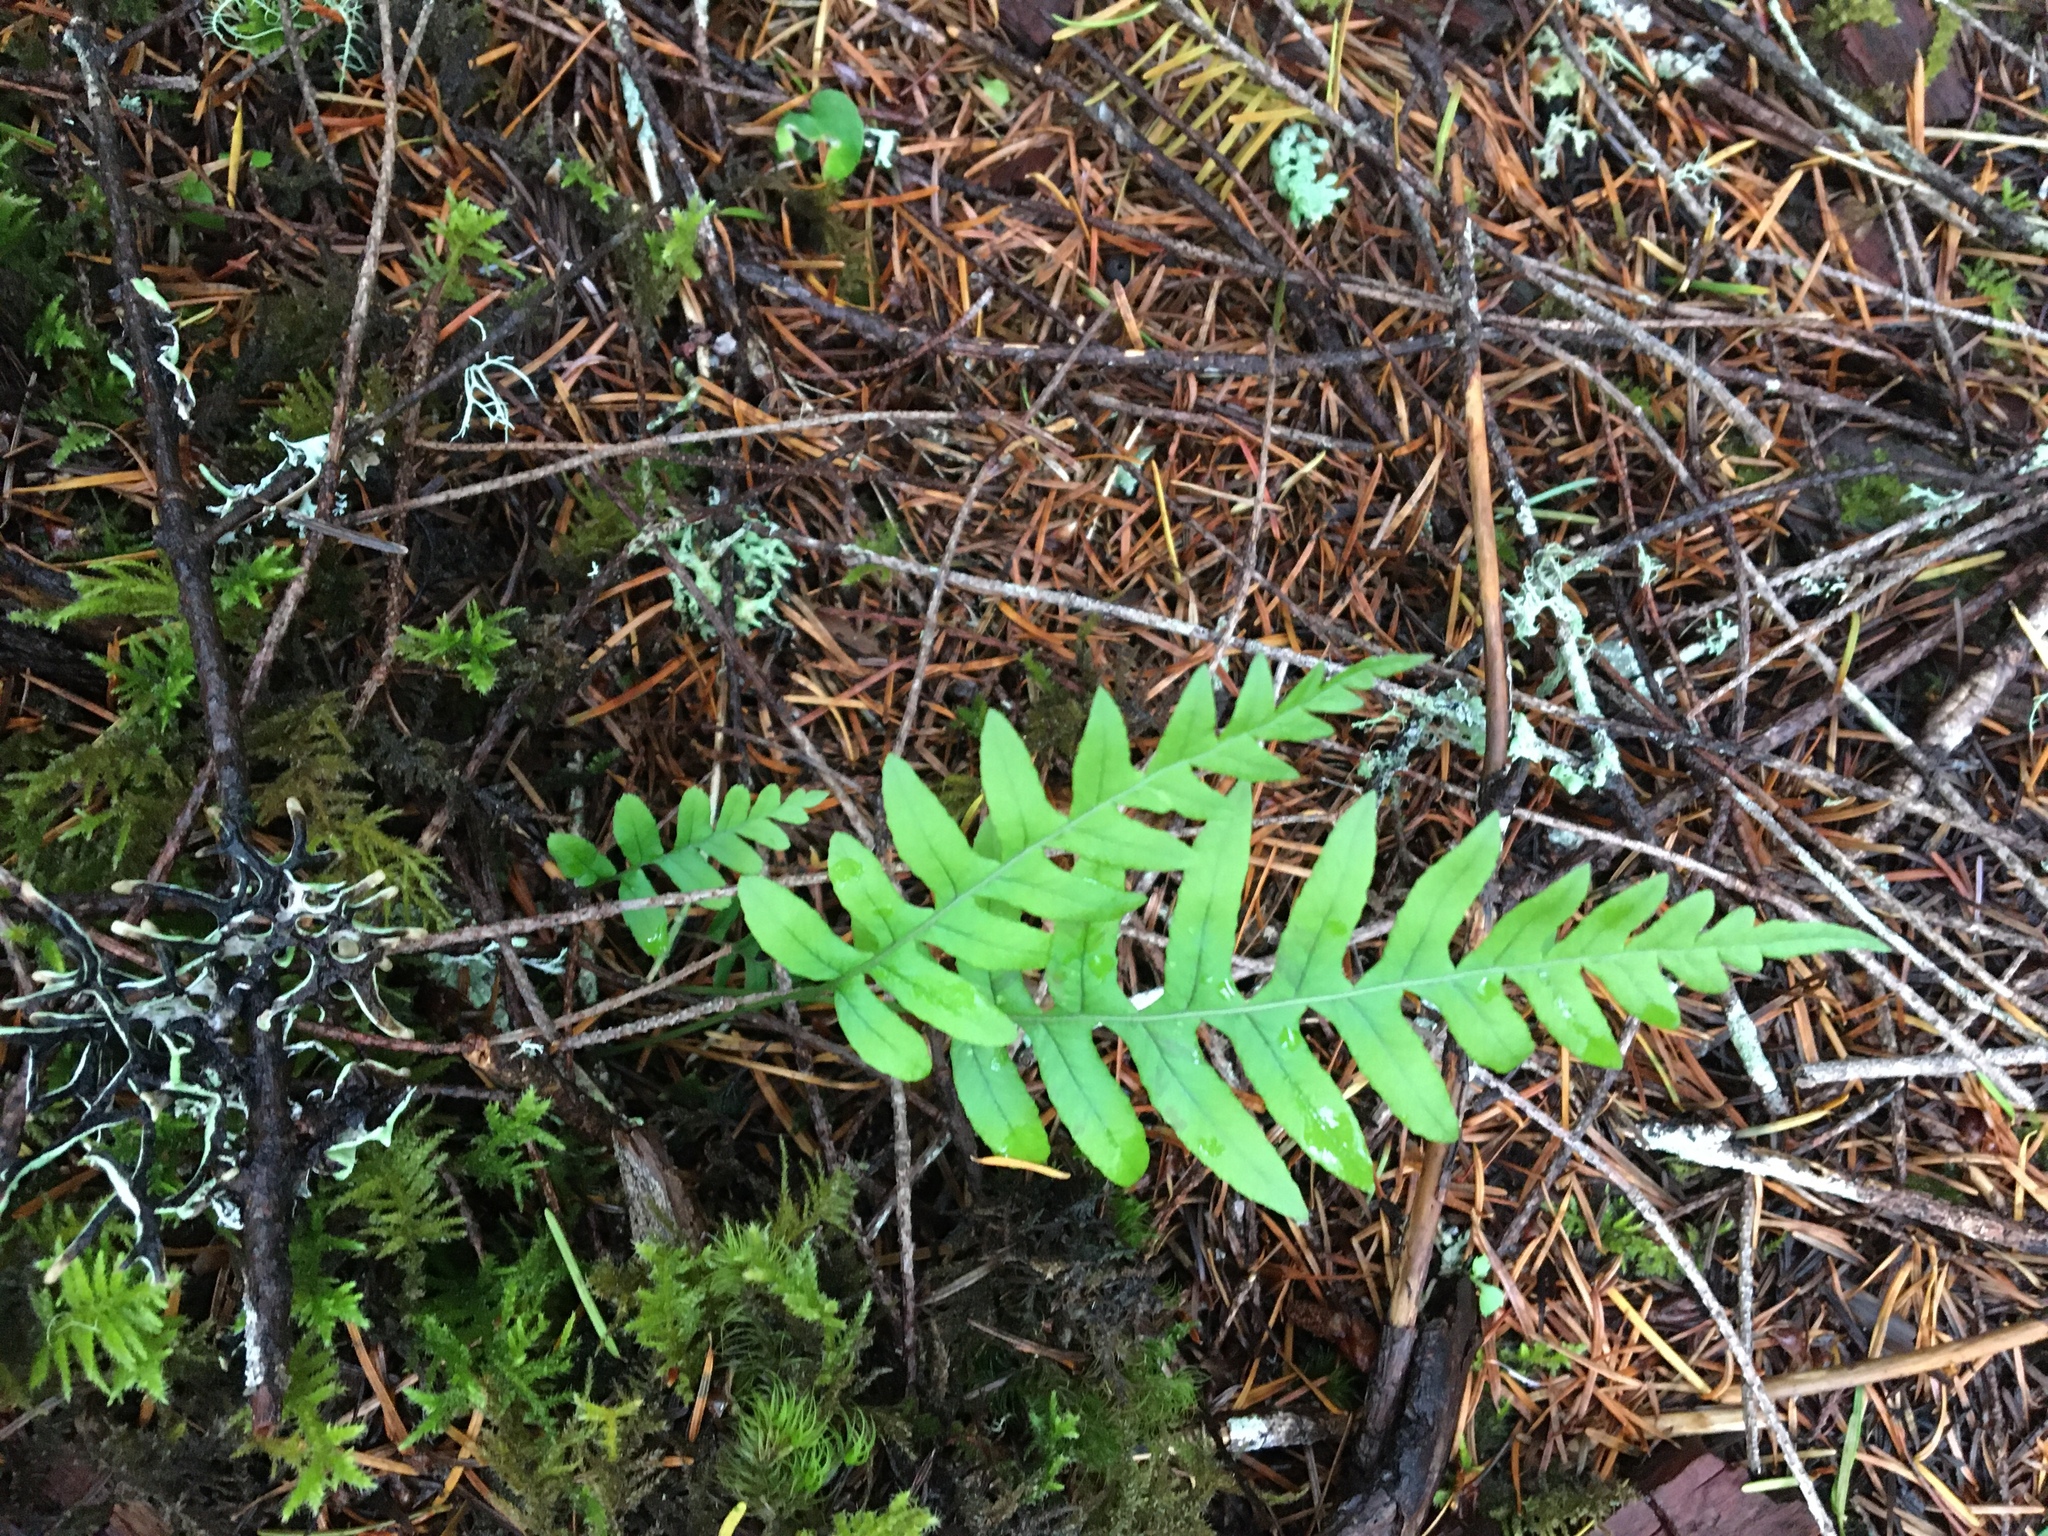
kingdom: Plantae
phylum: Tracheophyta
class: Polypodiopsida
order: Polypodiales
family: Polypodiaceae
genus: Polypodium
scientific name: Polypodium glycyrrhiza
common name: Licorice fern
